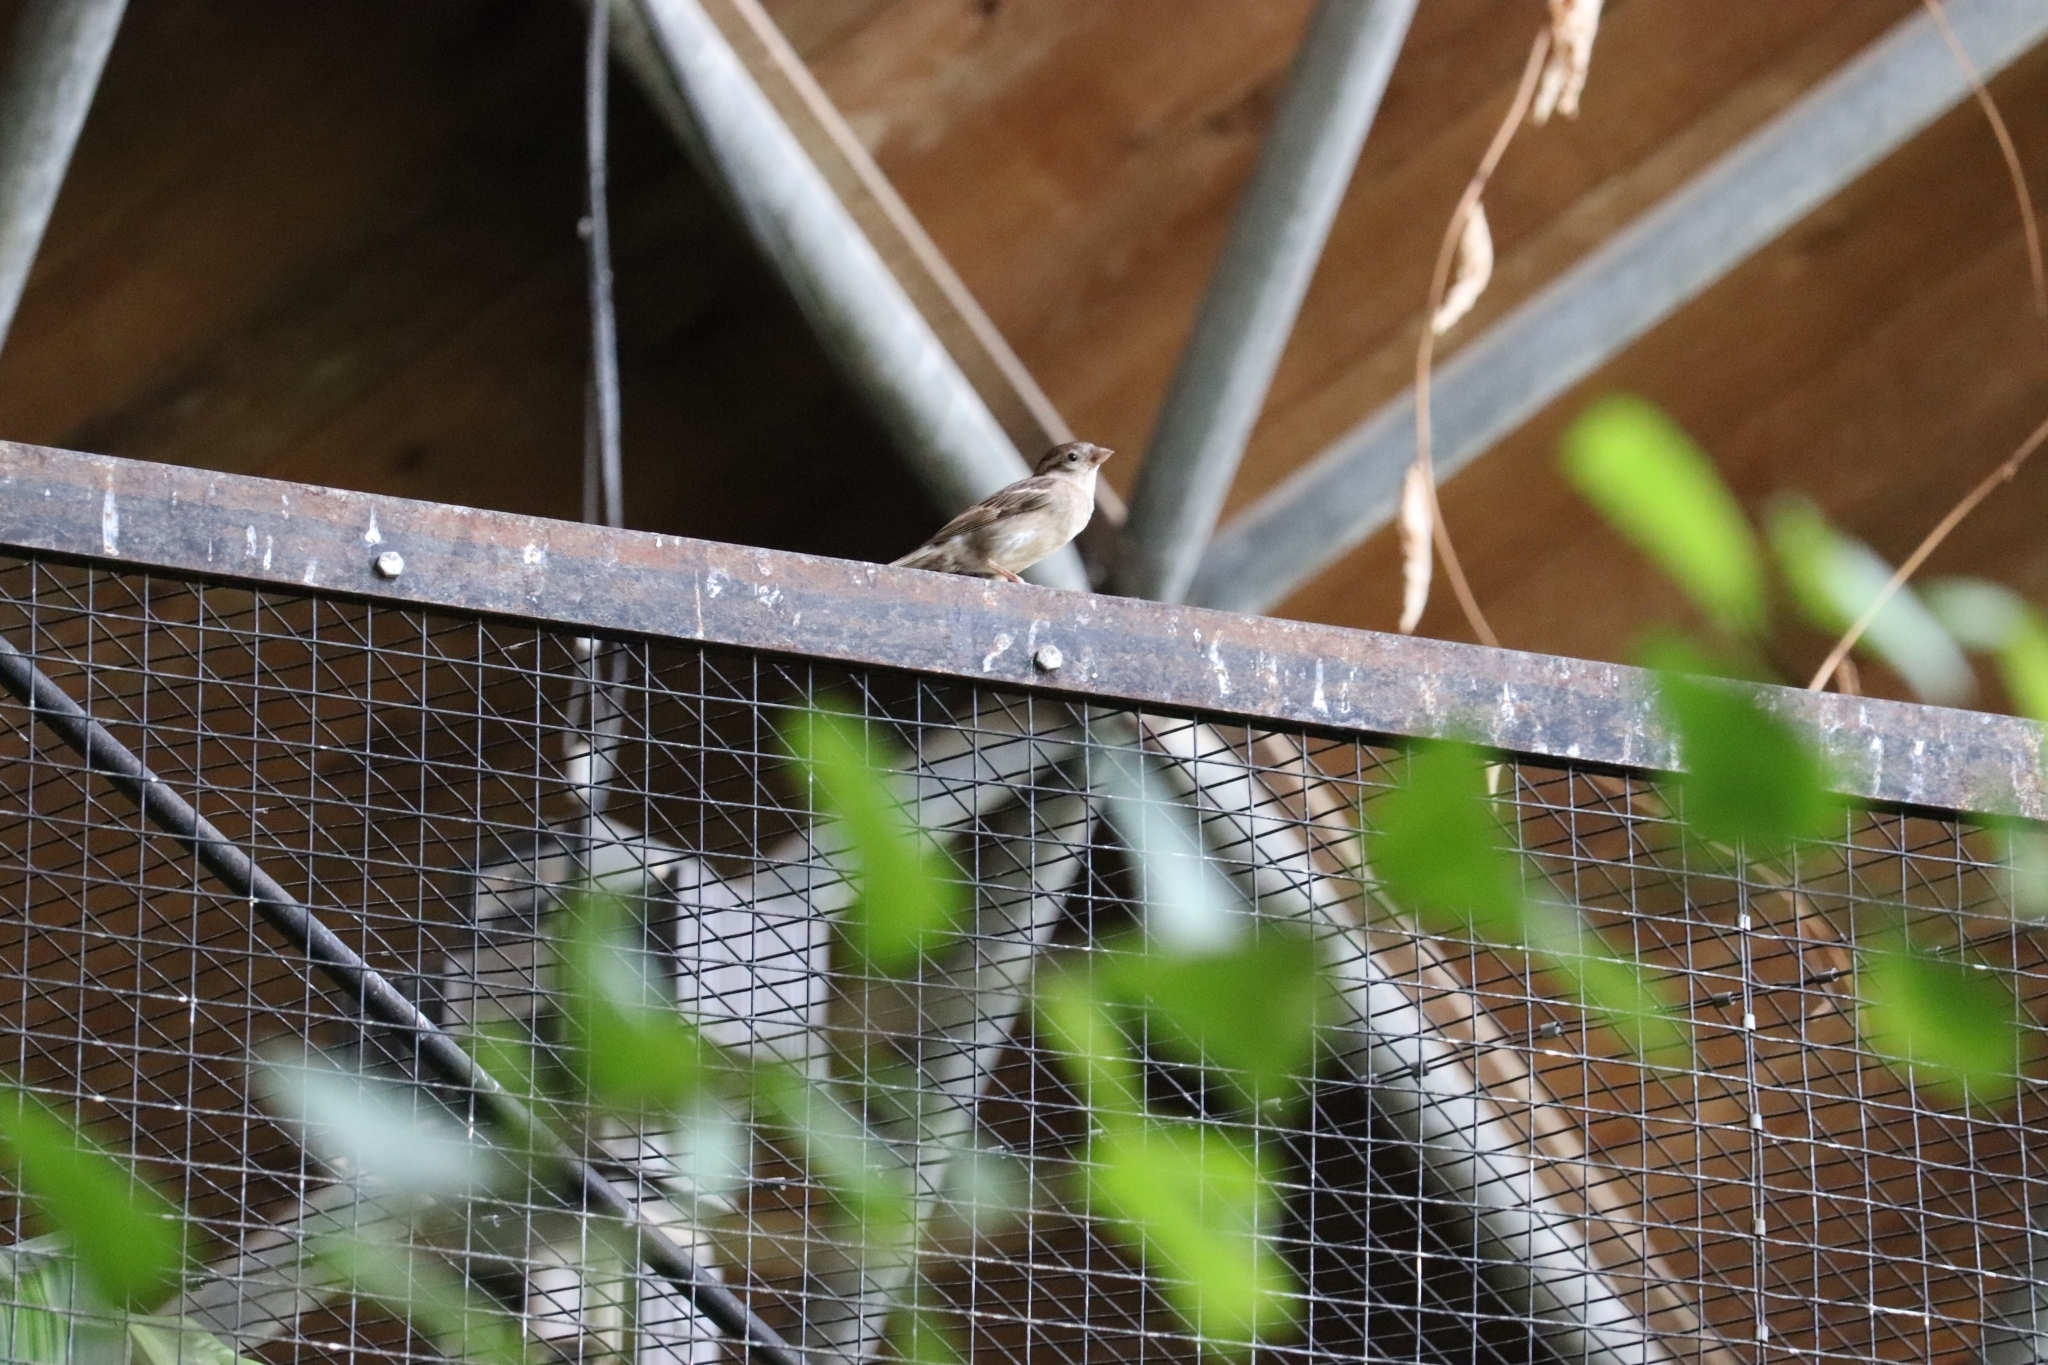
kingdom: Animalia
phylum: Chordata
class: Aves
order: Passeriformes
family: Passeridae
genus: Passer
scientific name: Passer domesticus
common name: House sparrow
